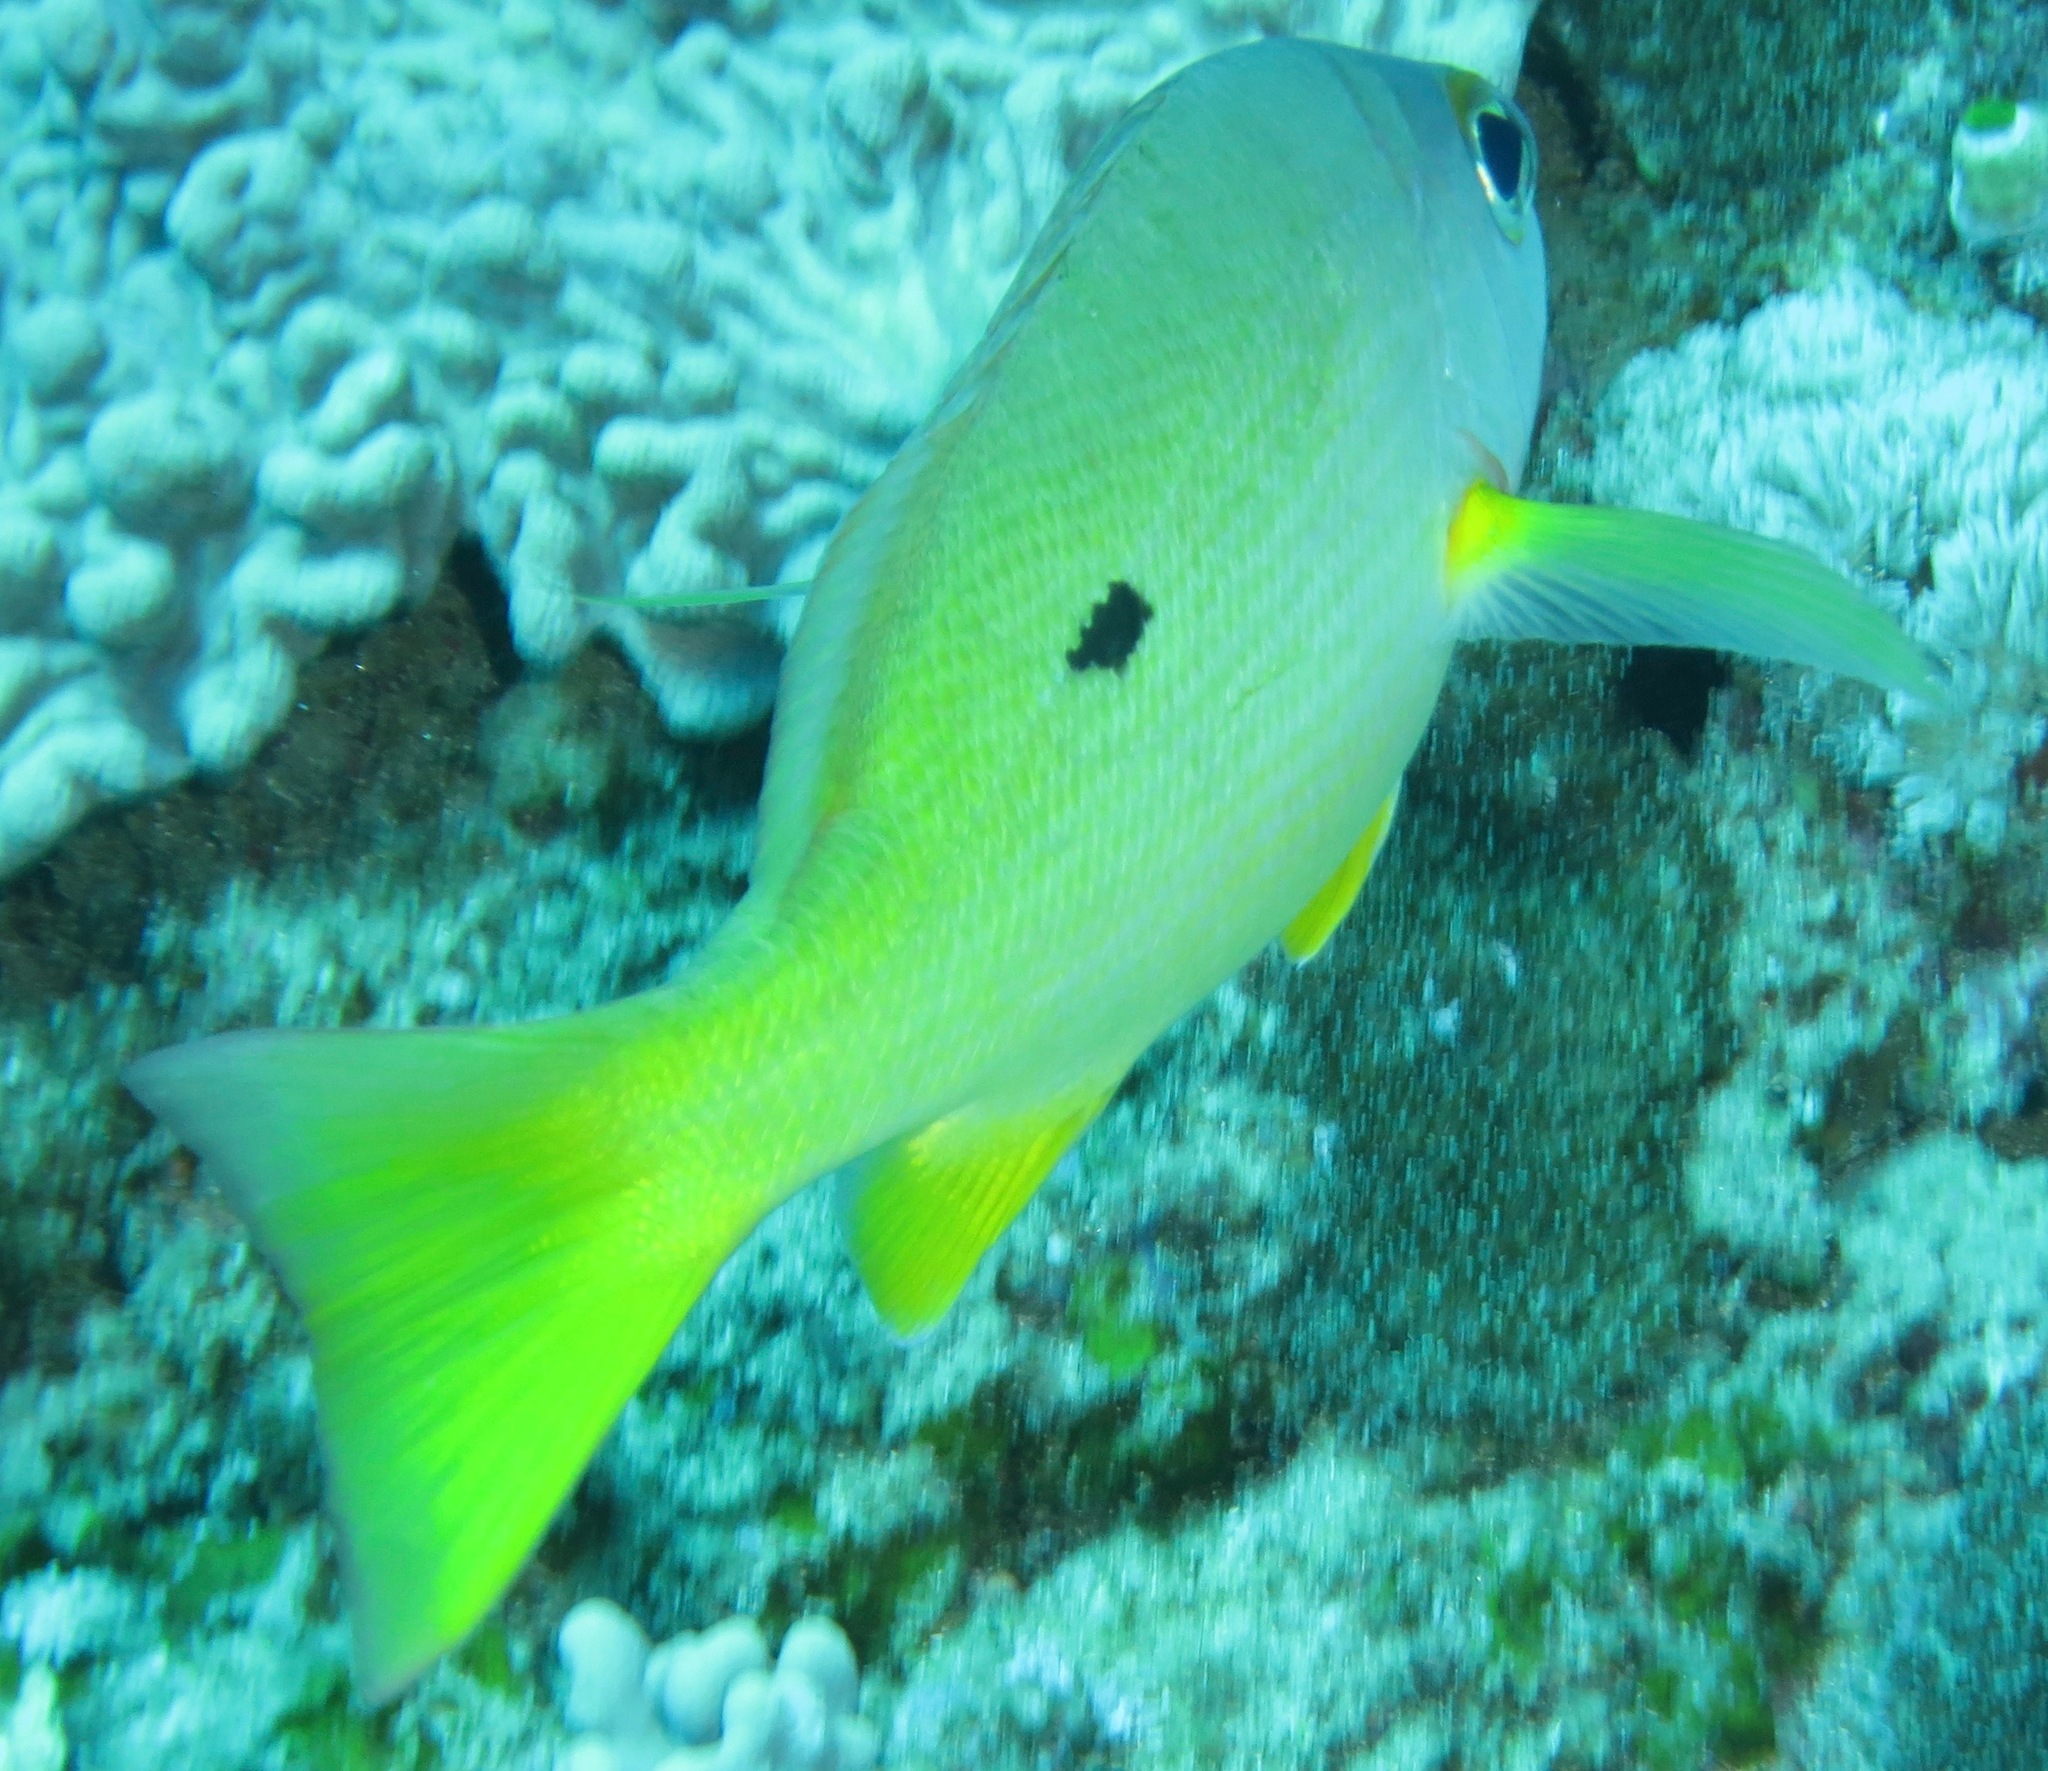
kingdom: Animalia
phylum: Chordata
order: Perciformes
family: Lutjanidae
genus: Lutjanus
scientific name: Lutjanus fulviflamma
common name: Blackspot snapper
